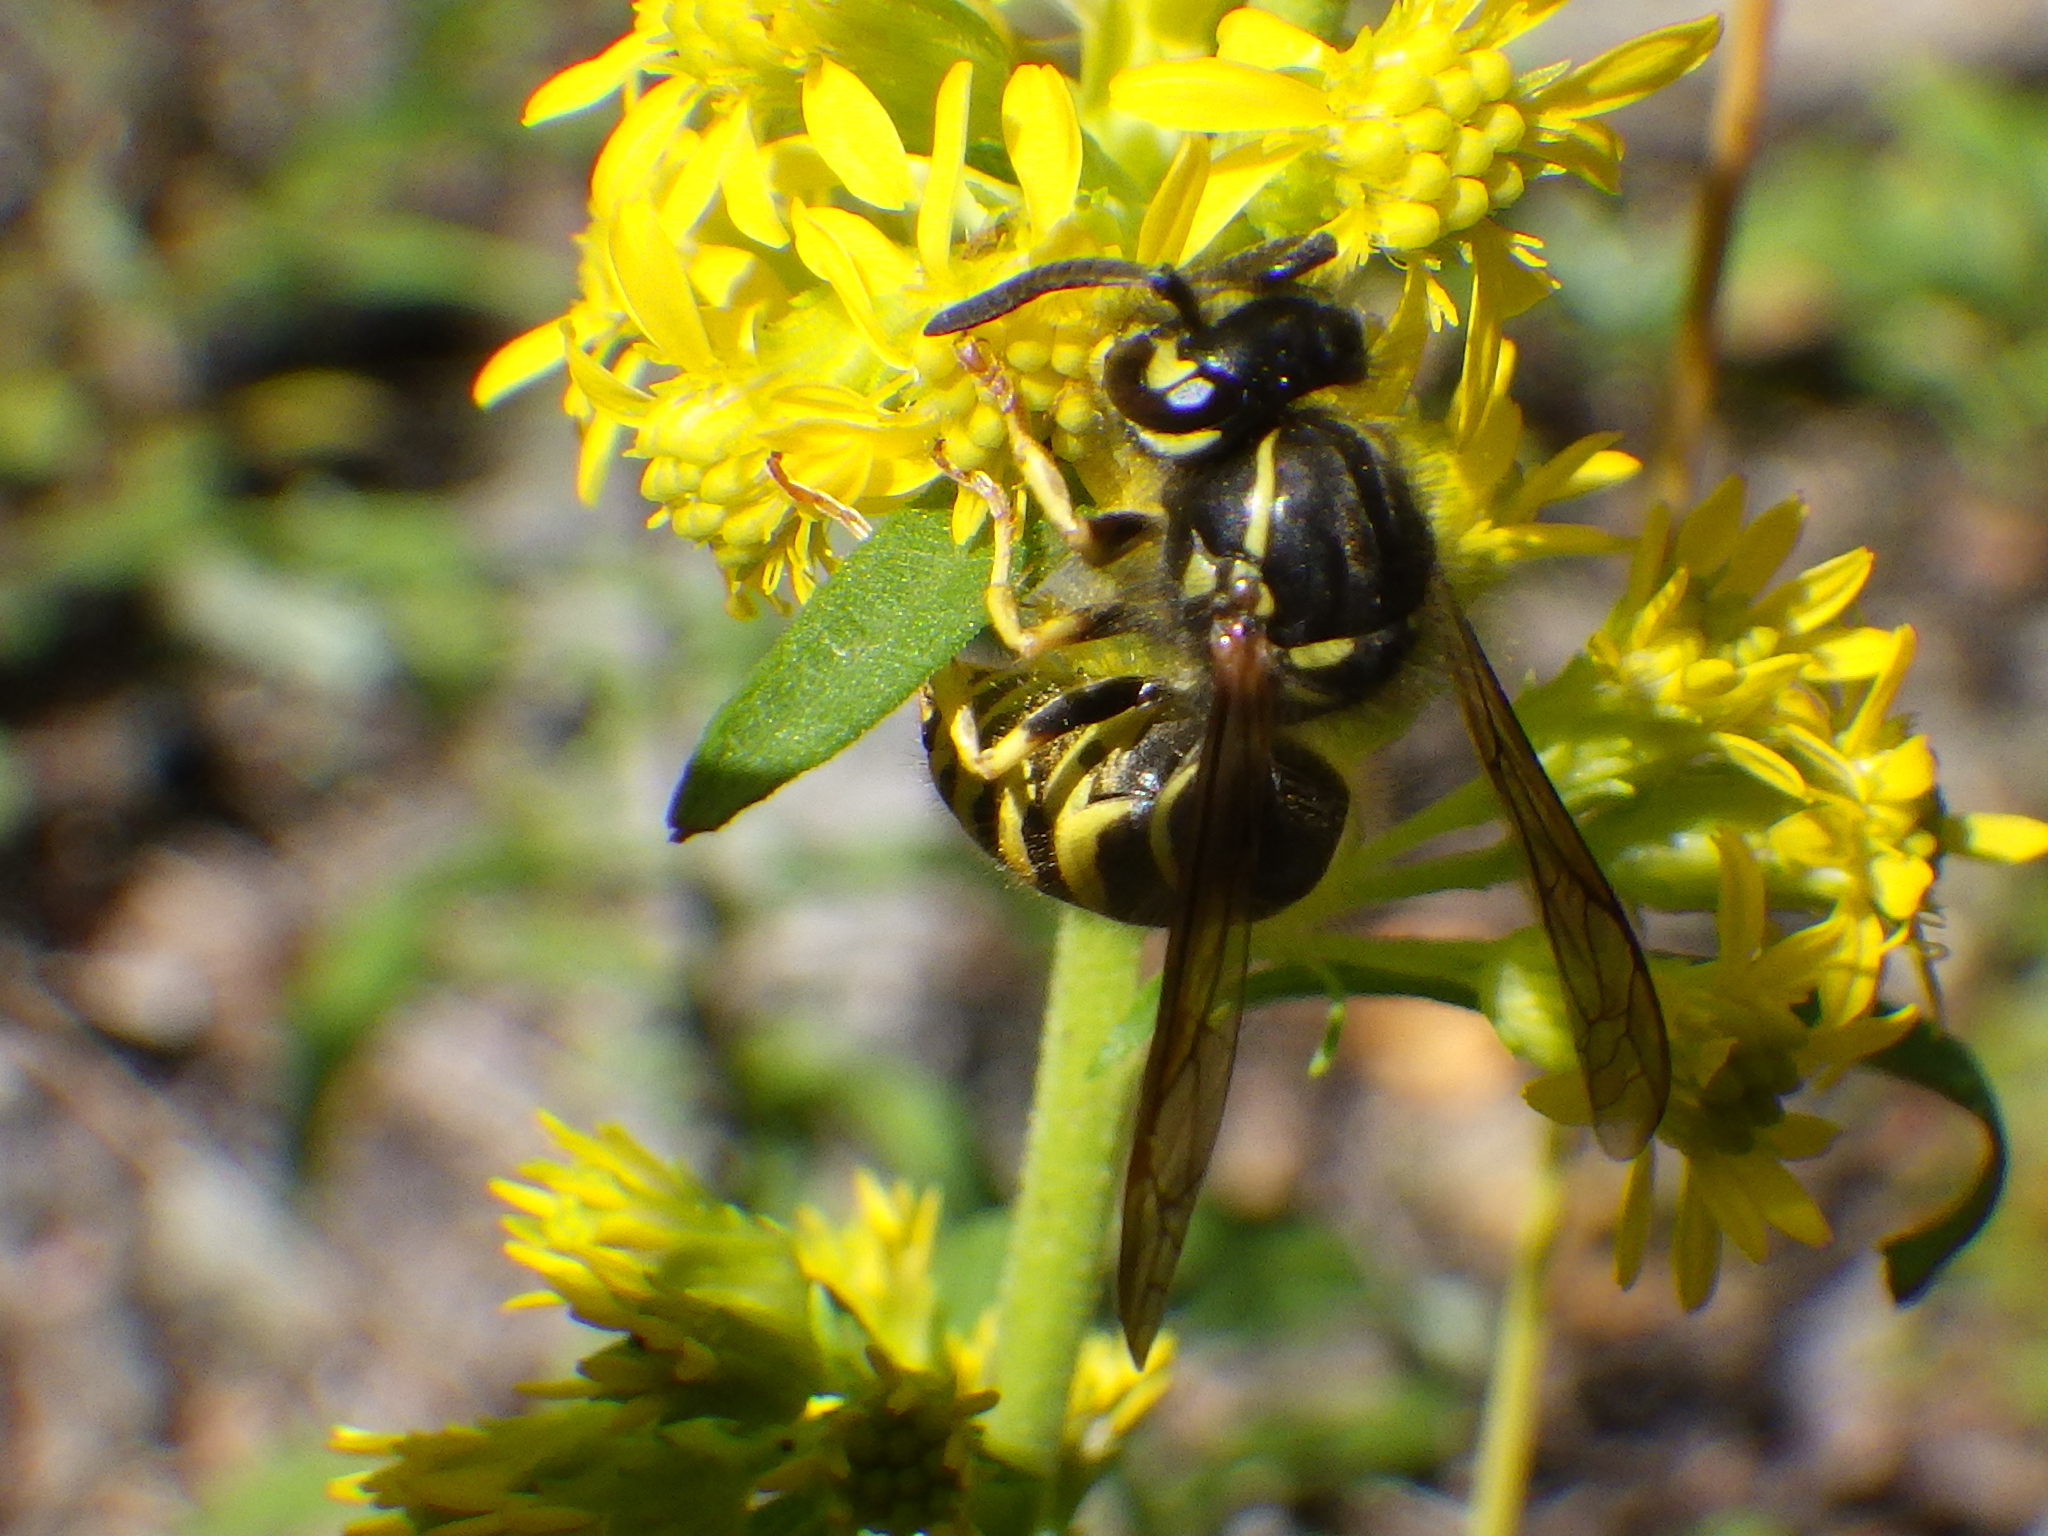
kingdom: Animalia
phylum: Arthropoda
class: Insecta
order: Hymenoptera
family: Vespidae
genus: Vespula
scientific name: Vespula alascensis
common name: Alaska yellowjacket
